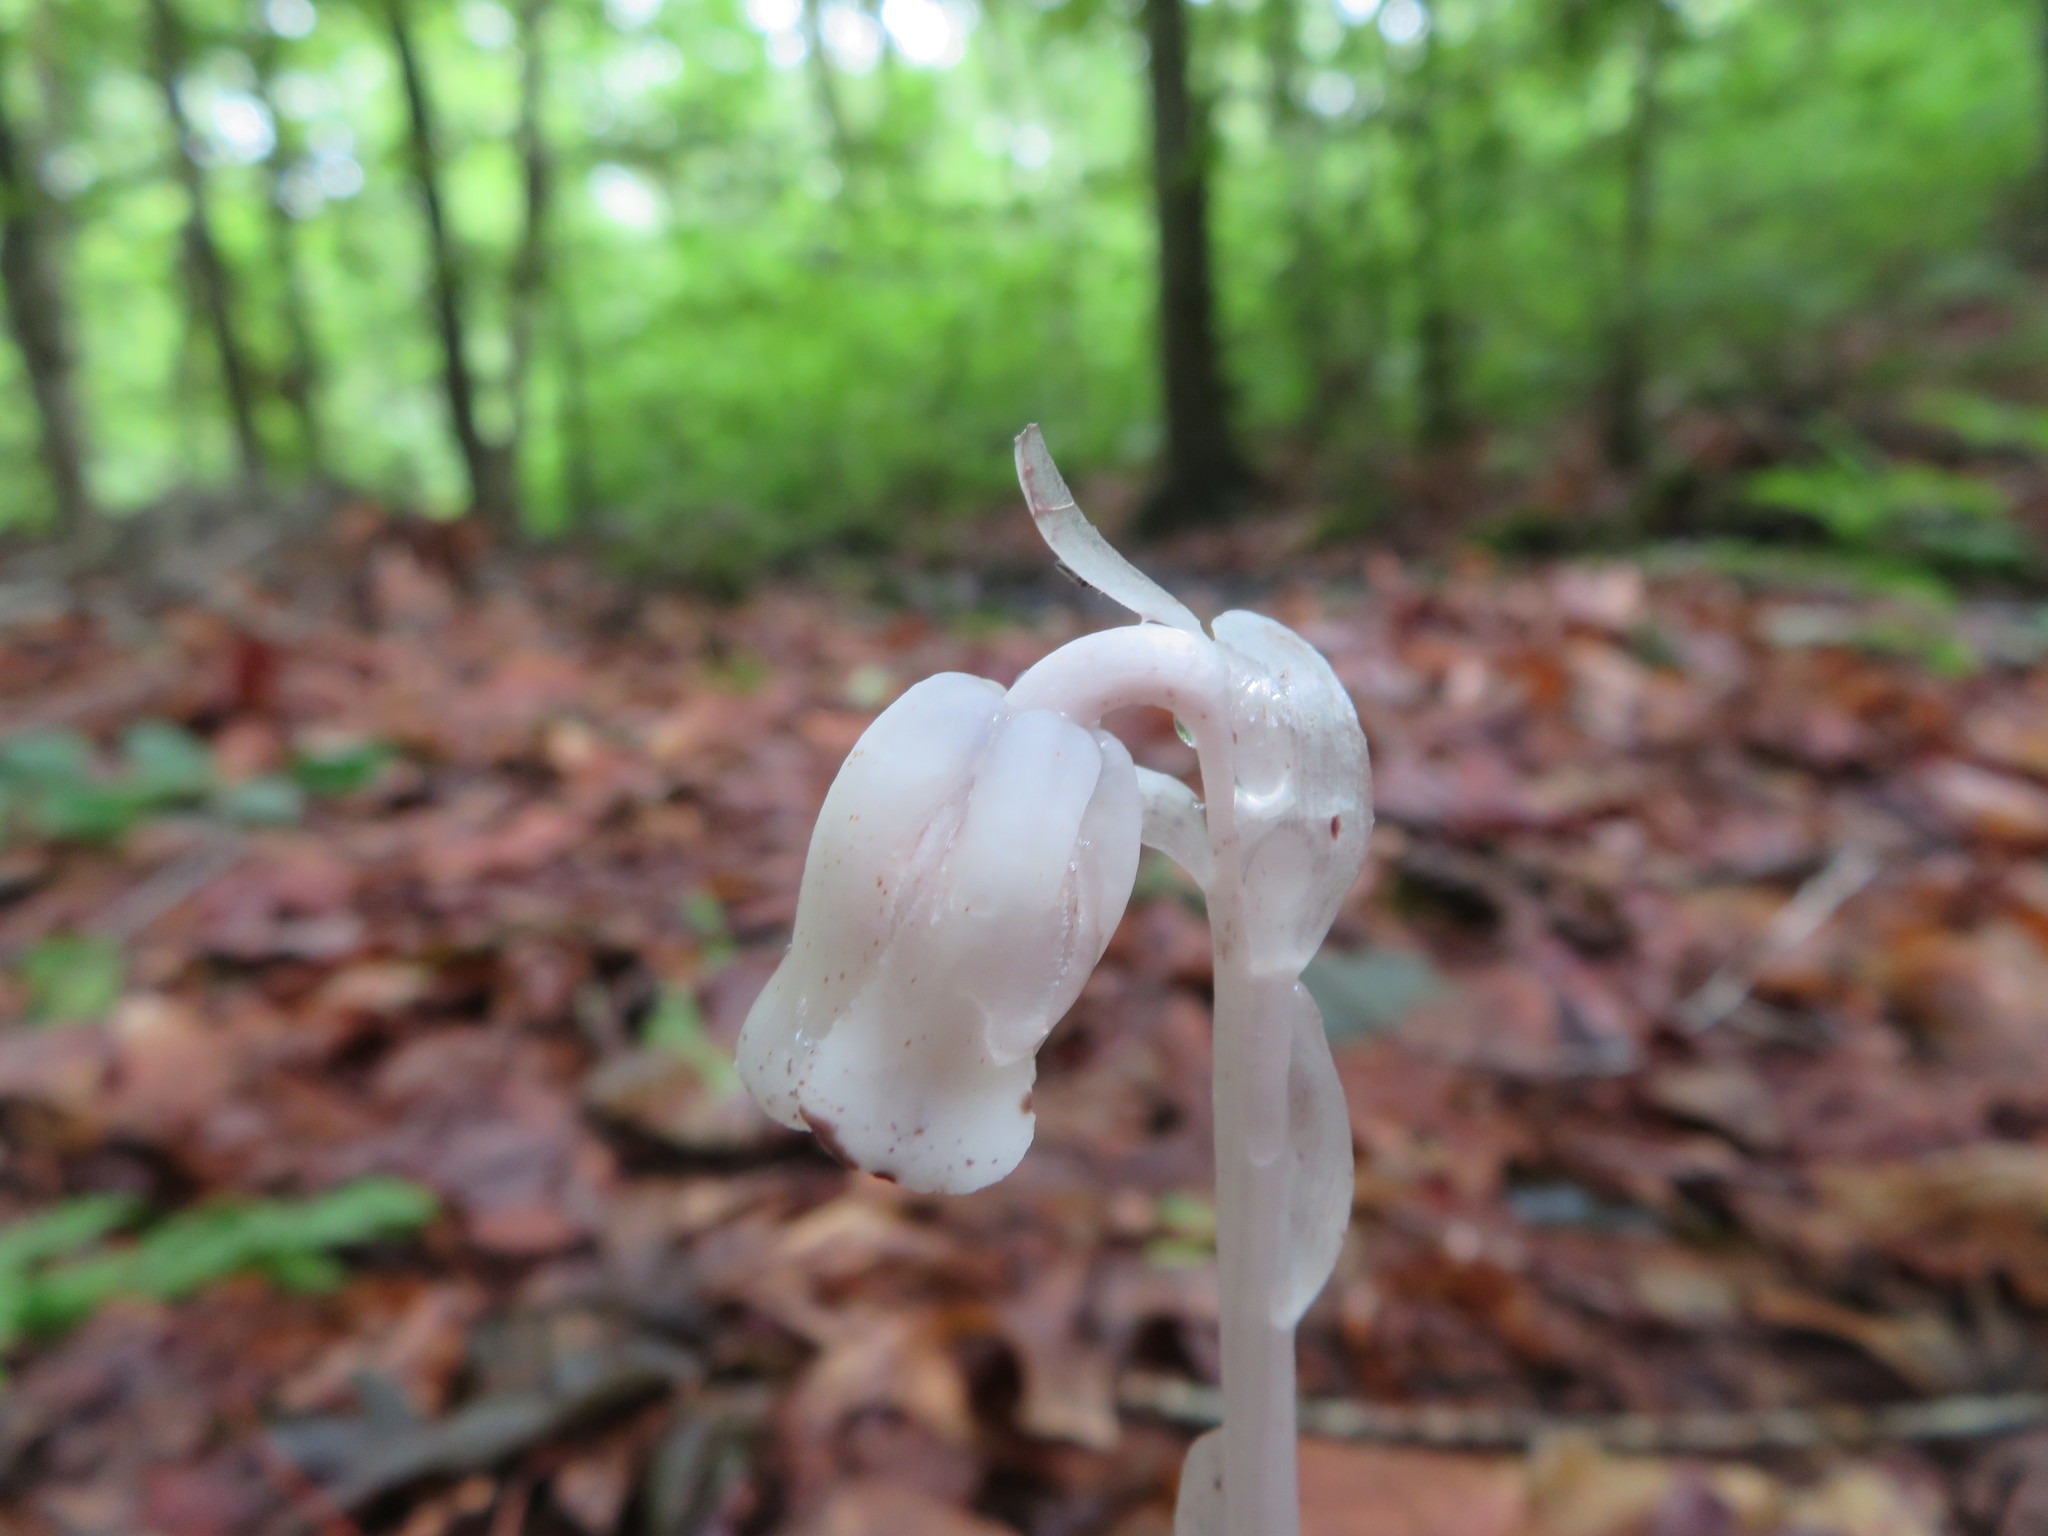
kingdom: Plantae
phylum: Tracheophyta
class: Magnoliopsida
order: Ericales
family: Ericaceae
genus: Monotropa
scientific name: Monotropa uniflora
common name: Convulsion root
